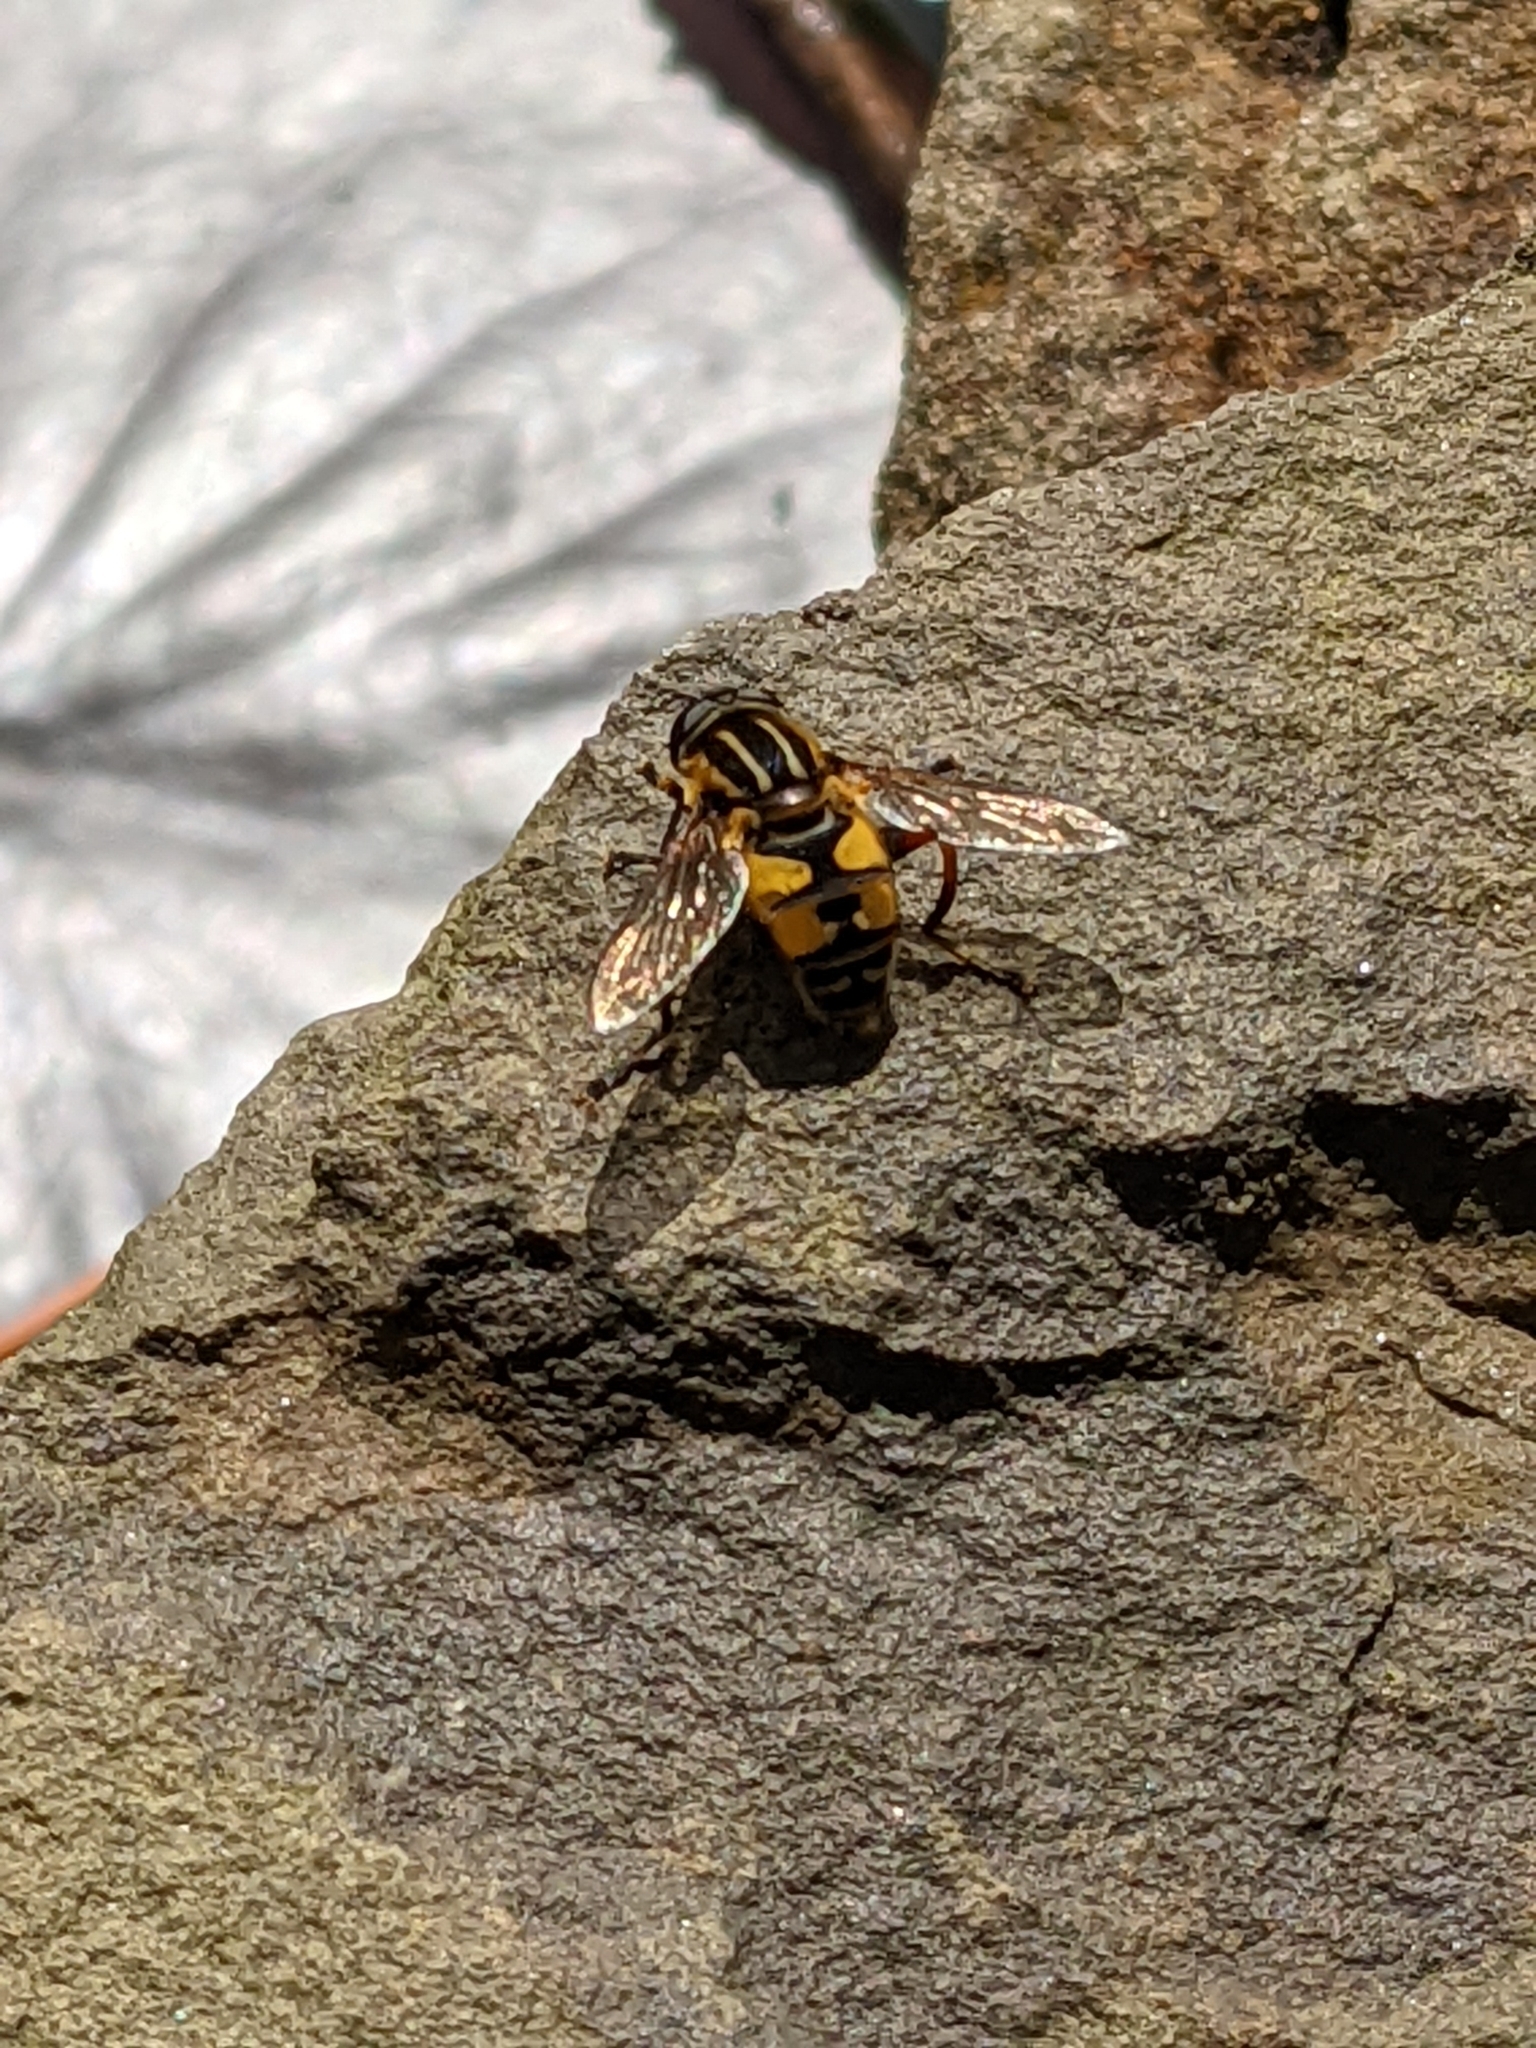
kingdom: Animalia
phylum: Arthropoda
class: Insecta
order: Diptera
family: Syrphidae
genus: Helophilus
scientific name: Helophilus pendulus
